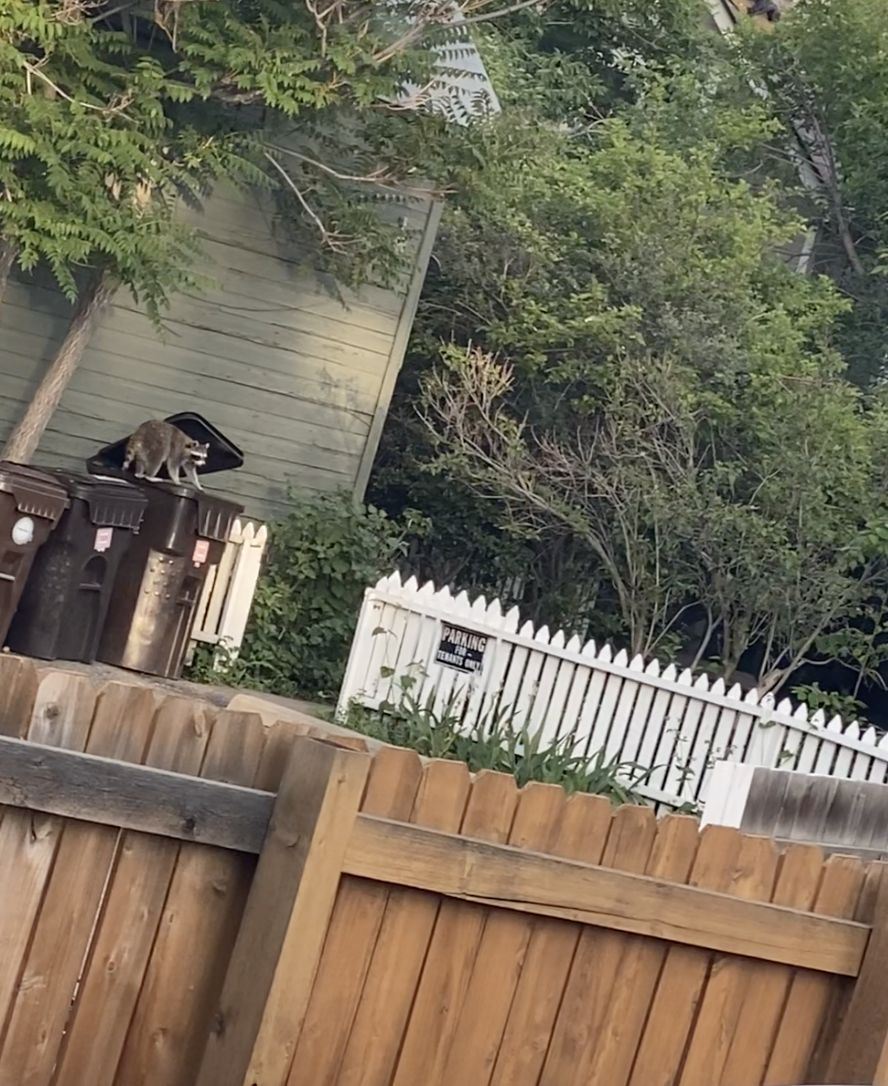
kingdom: Animalia
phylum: Chordata
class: Mammalia
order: Carnivora
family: Procyonidae
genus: Procyon
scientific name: Procyon lotor
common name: Raccoon
